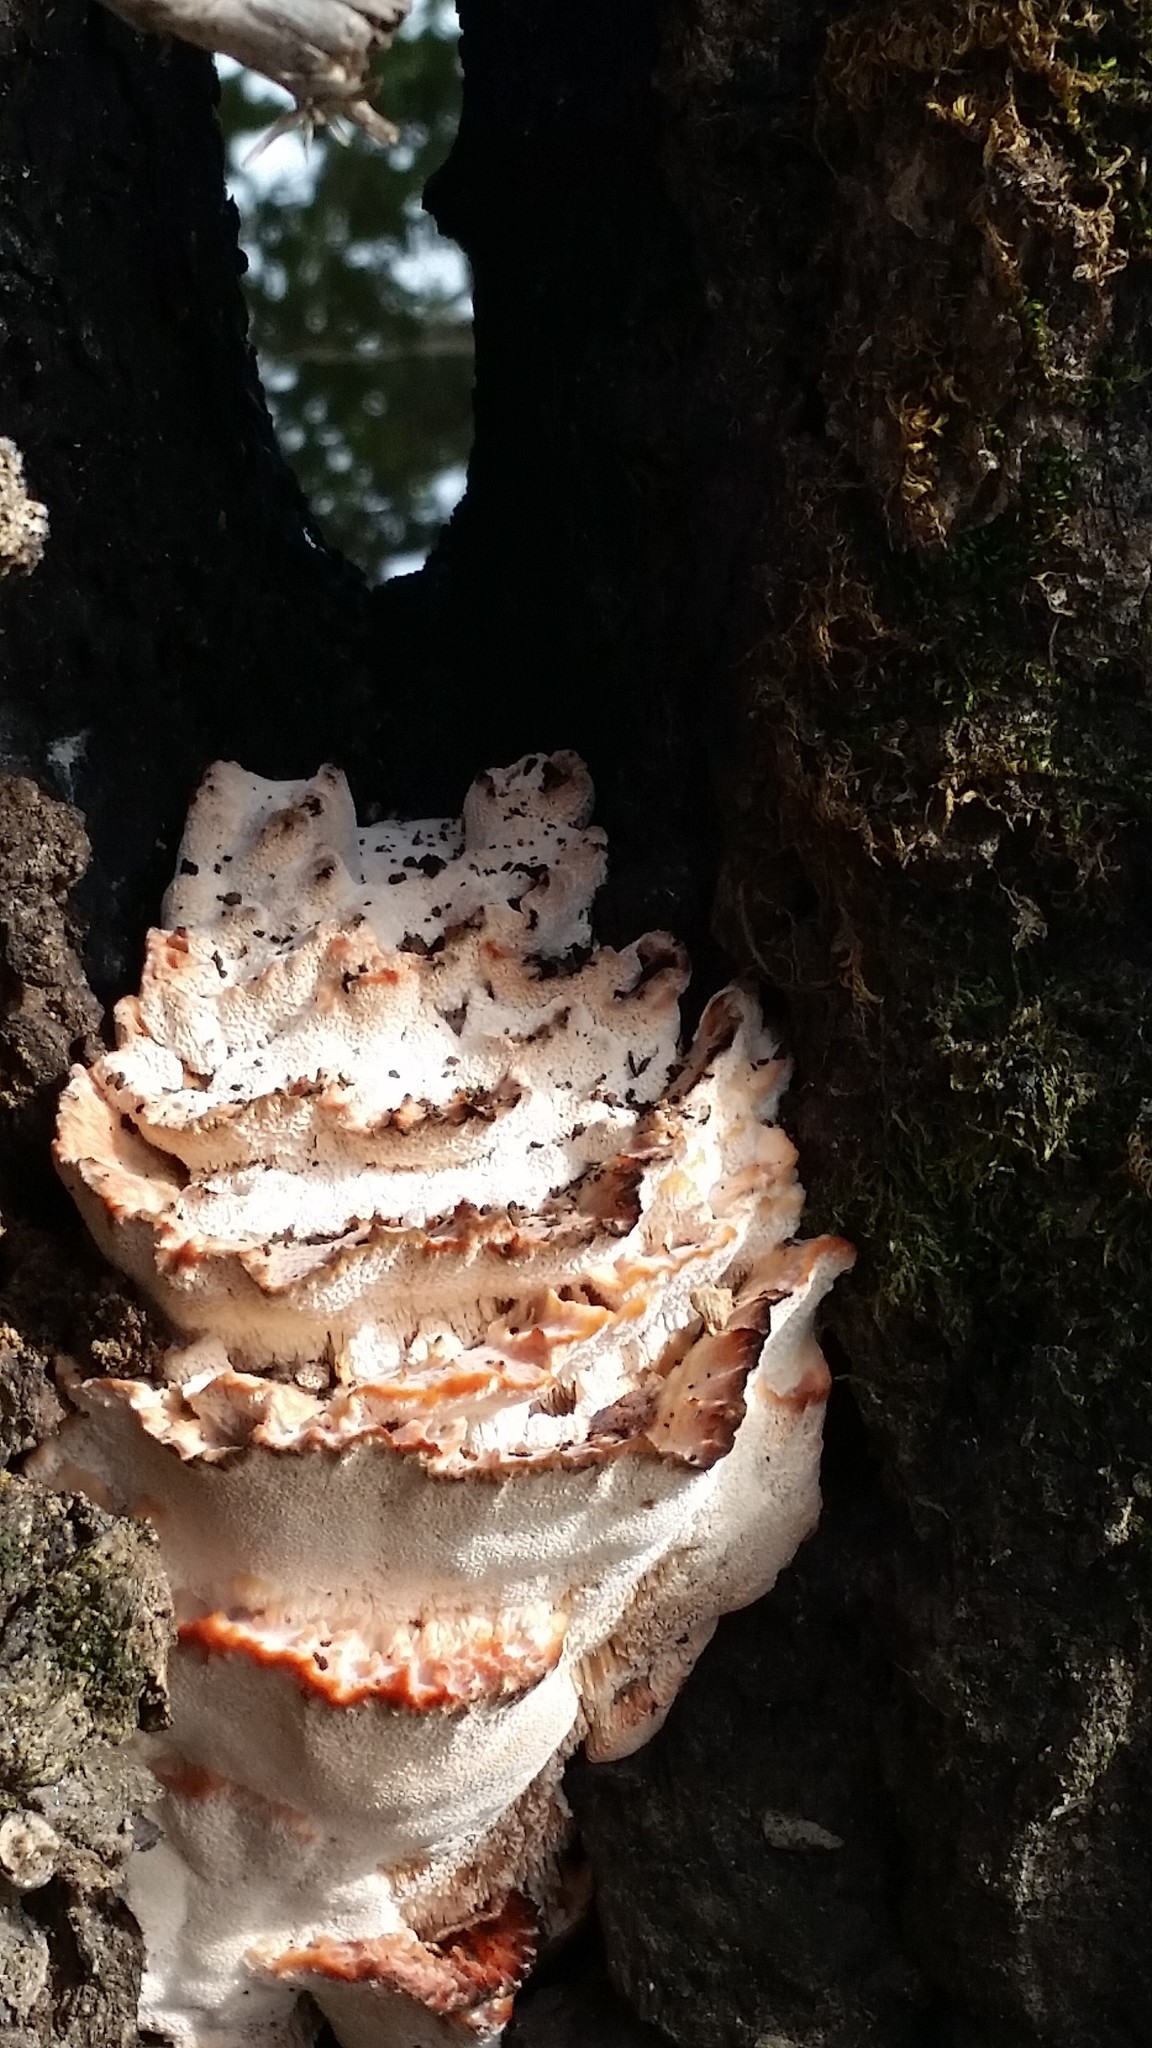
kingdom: Fungi
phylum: Basidiomycota
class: Agaricomycetes
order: Polyporales
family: Podoscyphaceae
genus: Abortiporus
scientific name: Abortiporus biennis
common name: Blushing rosette
